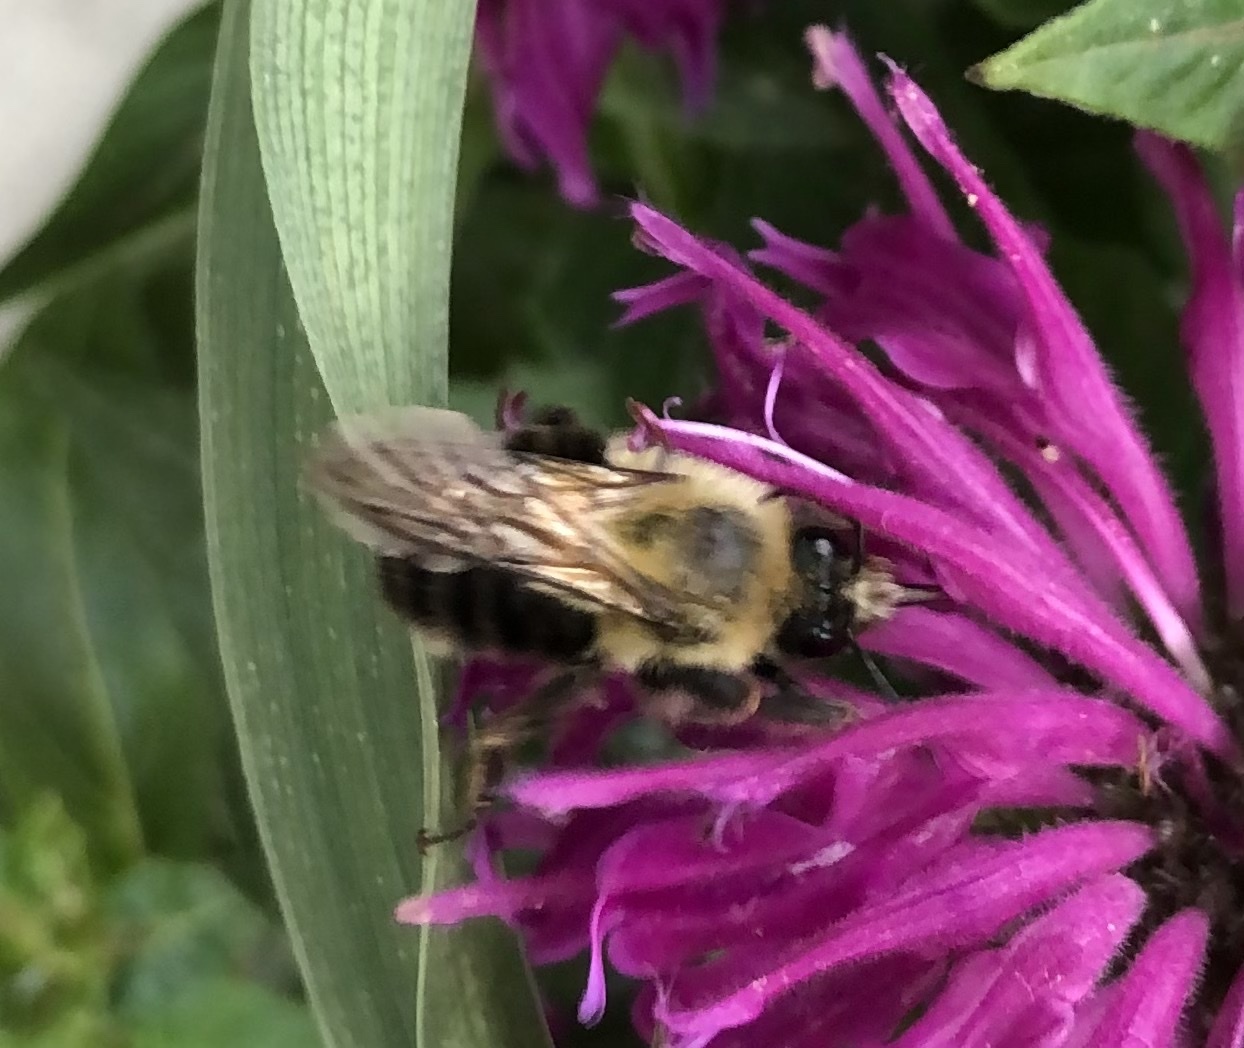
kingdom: Animalia
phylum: Arthropoda
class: Insecta
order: Hymenoptera
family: Apidae
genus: Bombus
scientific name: Bombus bimaculatus
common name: Two-spotted bumble bee
